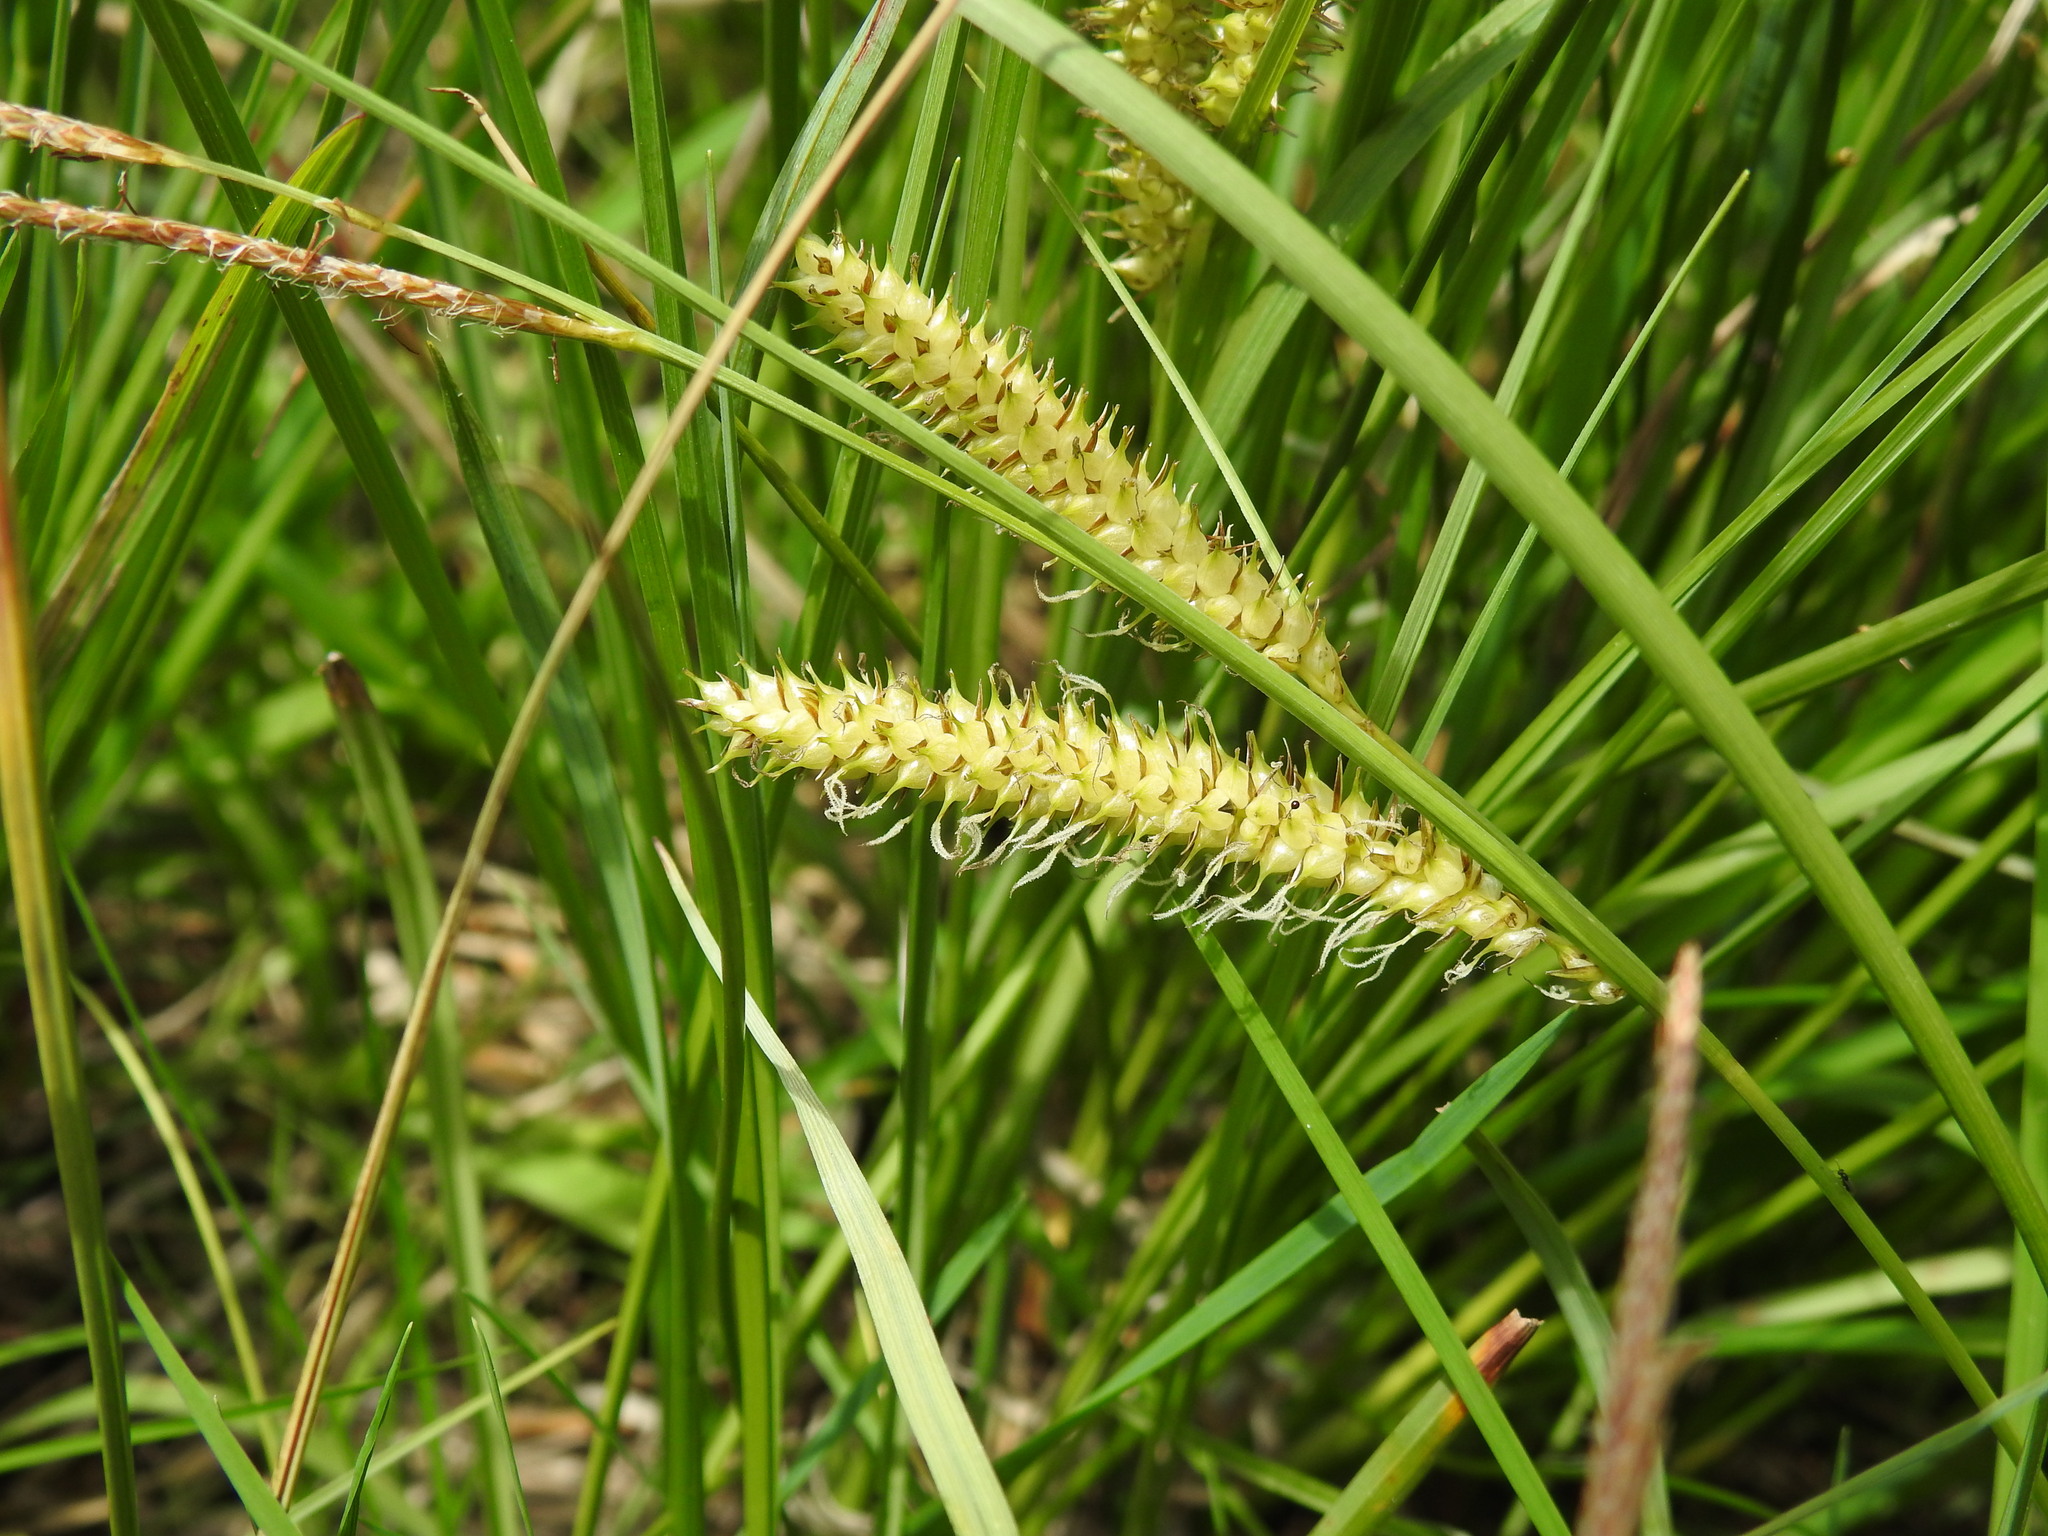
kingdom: Plantae
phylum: Tracheophyta
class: Liliopsida
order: Poales
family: Cyperaceae
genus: Carex
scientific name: Carex rostrata
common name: Bottle sedge
